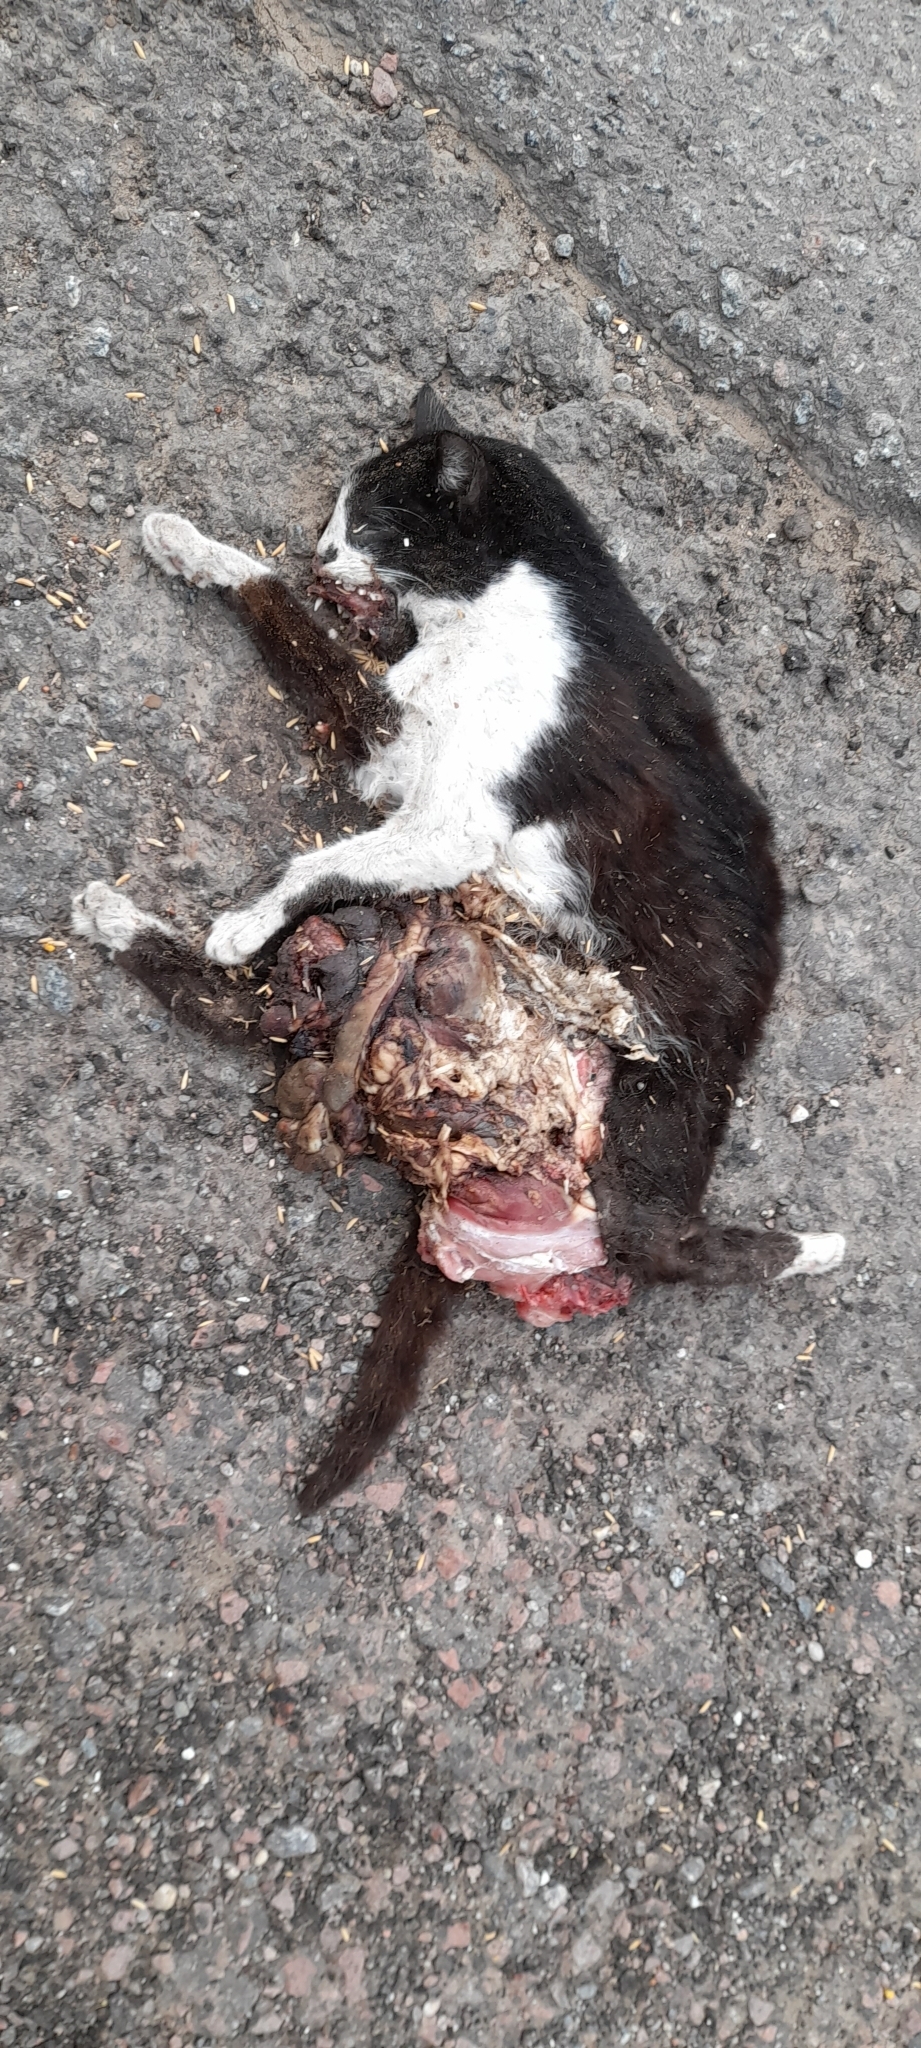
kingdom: Animalia
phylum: Chordata
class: Mammalia
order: Carnivora
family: Felidae
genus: Felis
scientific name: Felis catus
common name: Domestic cat
